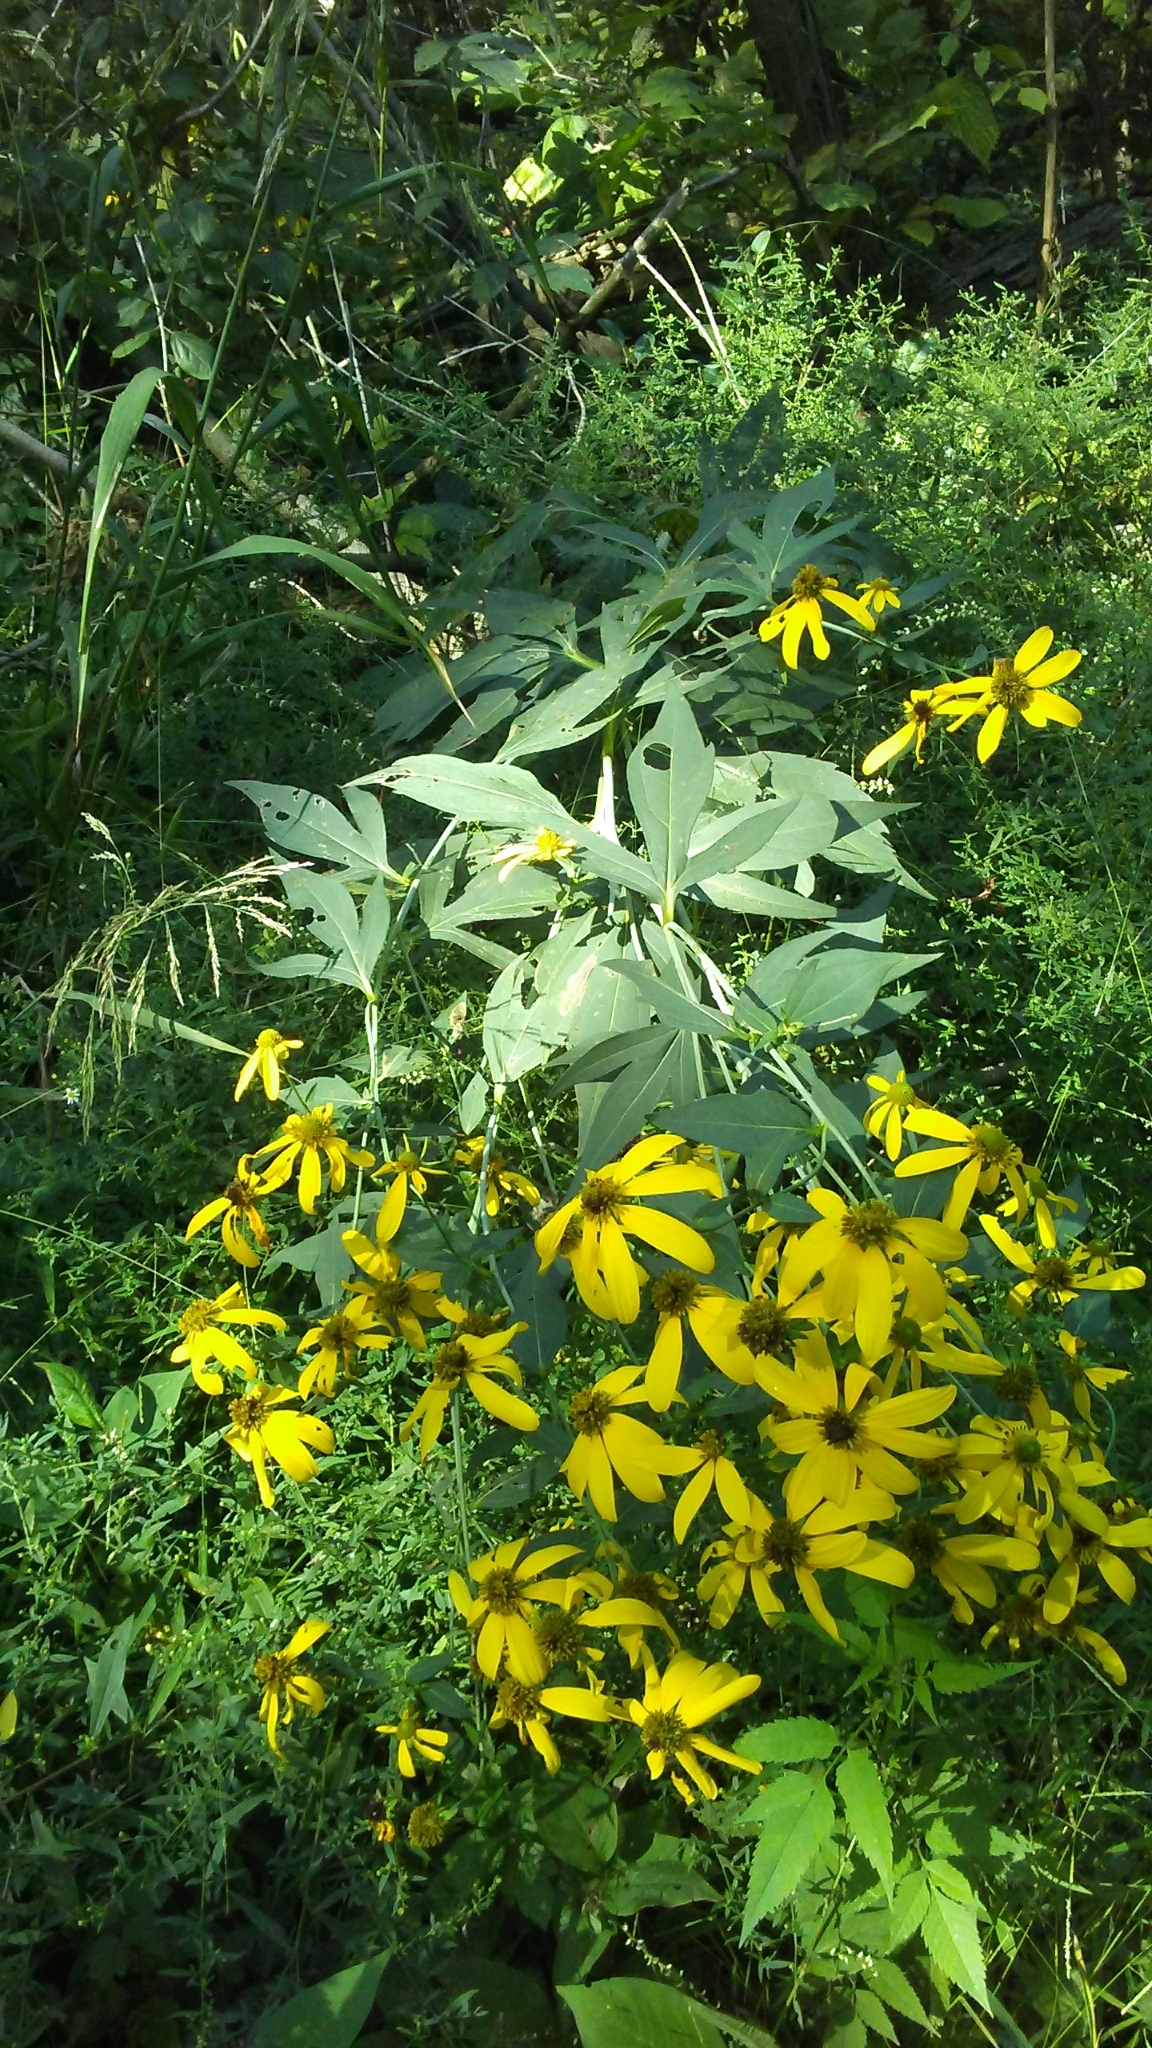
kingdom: Plantae
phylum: Tracheophyta
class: Magnoliopsida
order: Asterales
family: Asteraceae
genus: Rudbeckia
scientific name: Rudbeckia laciniata
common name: Coneflower
